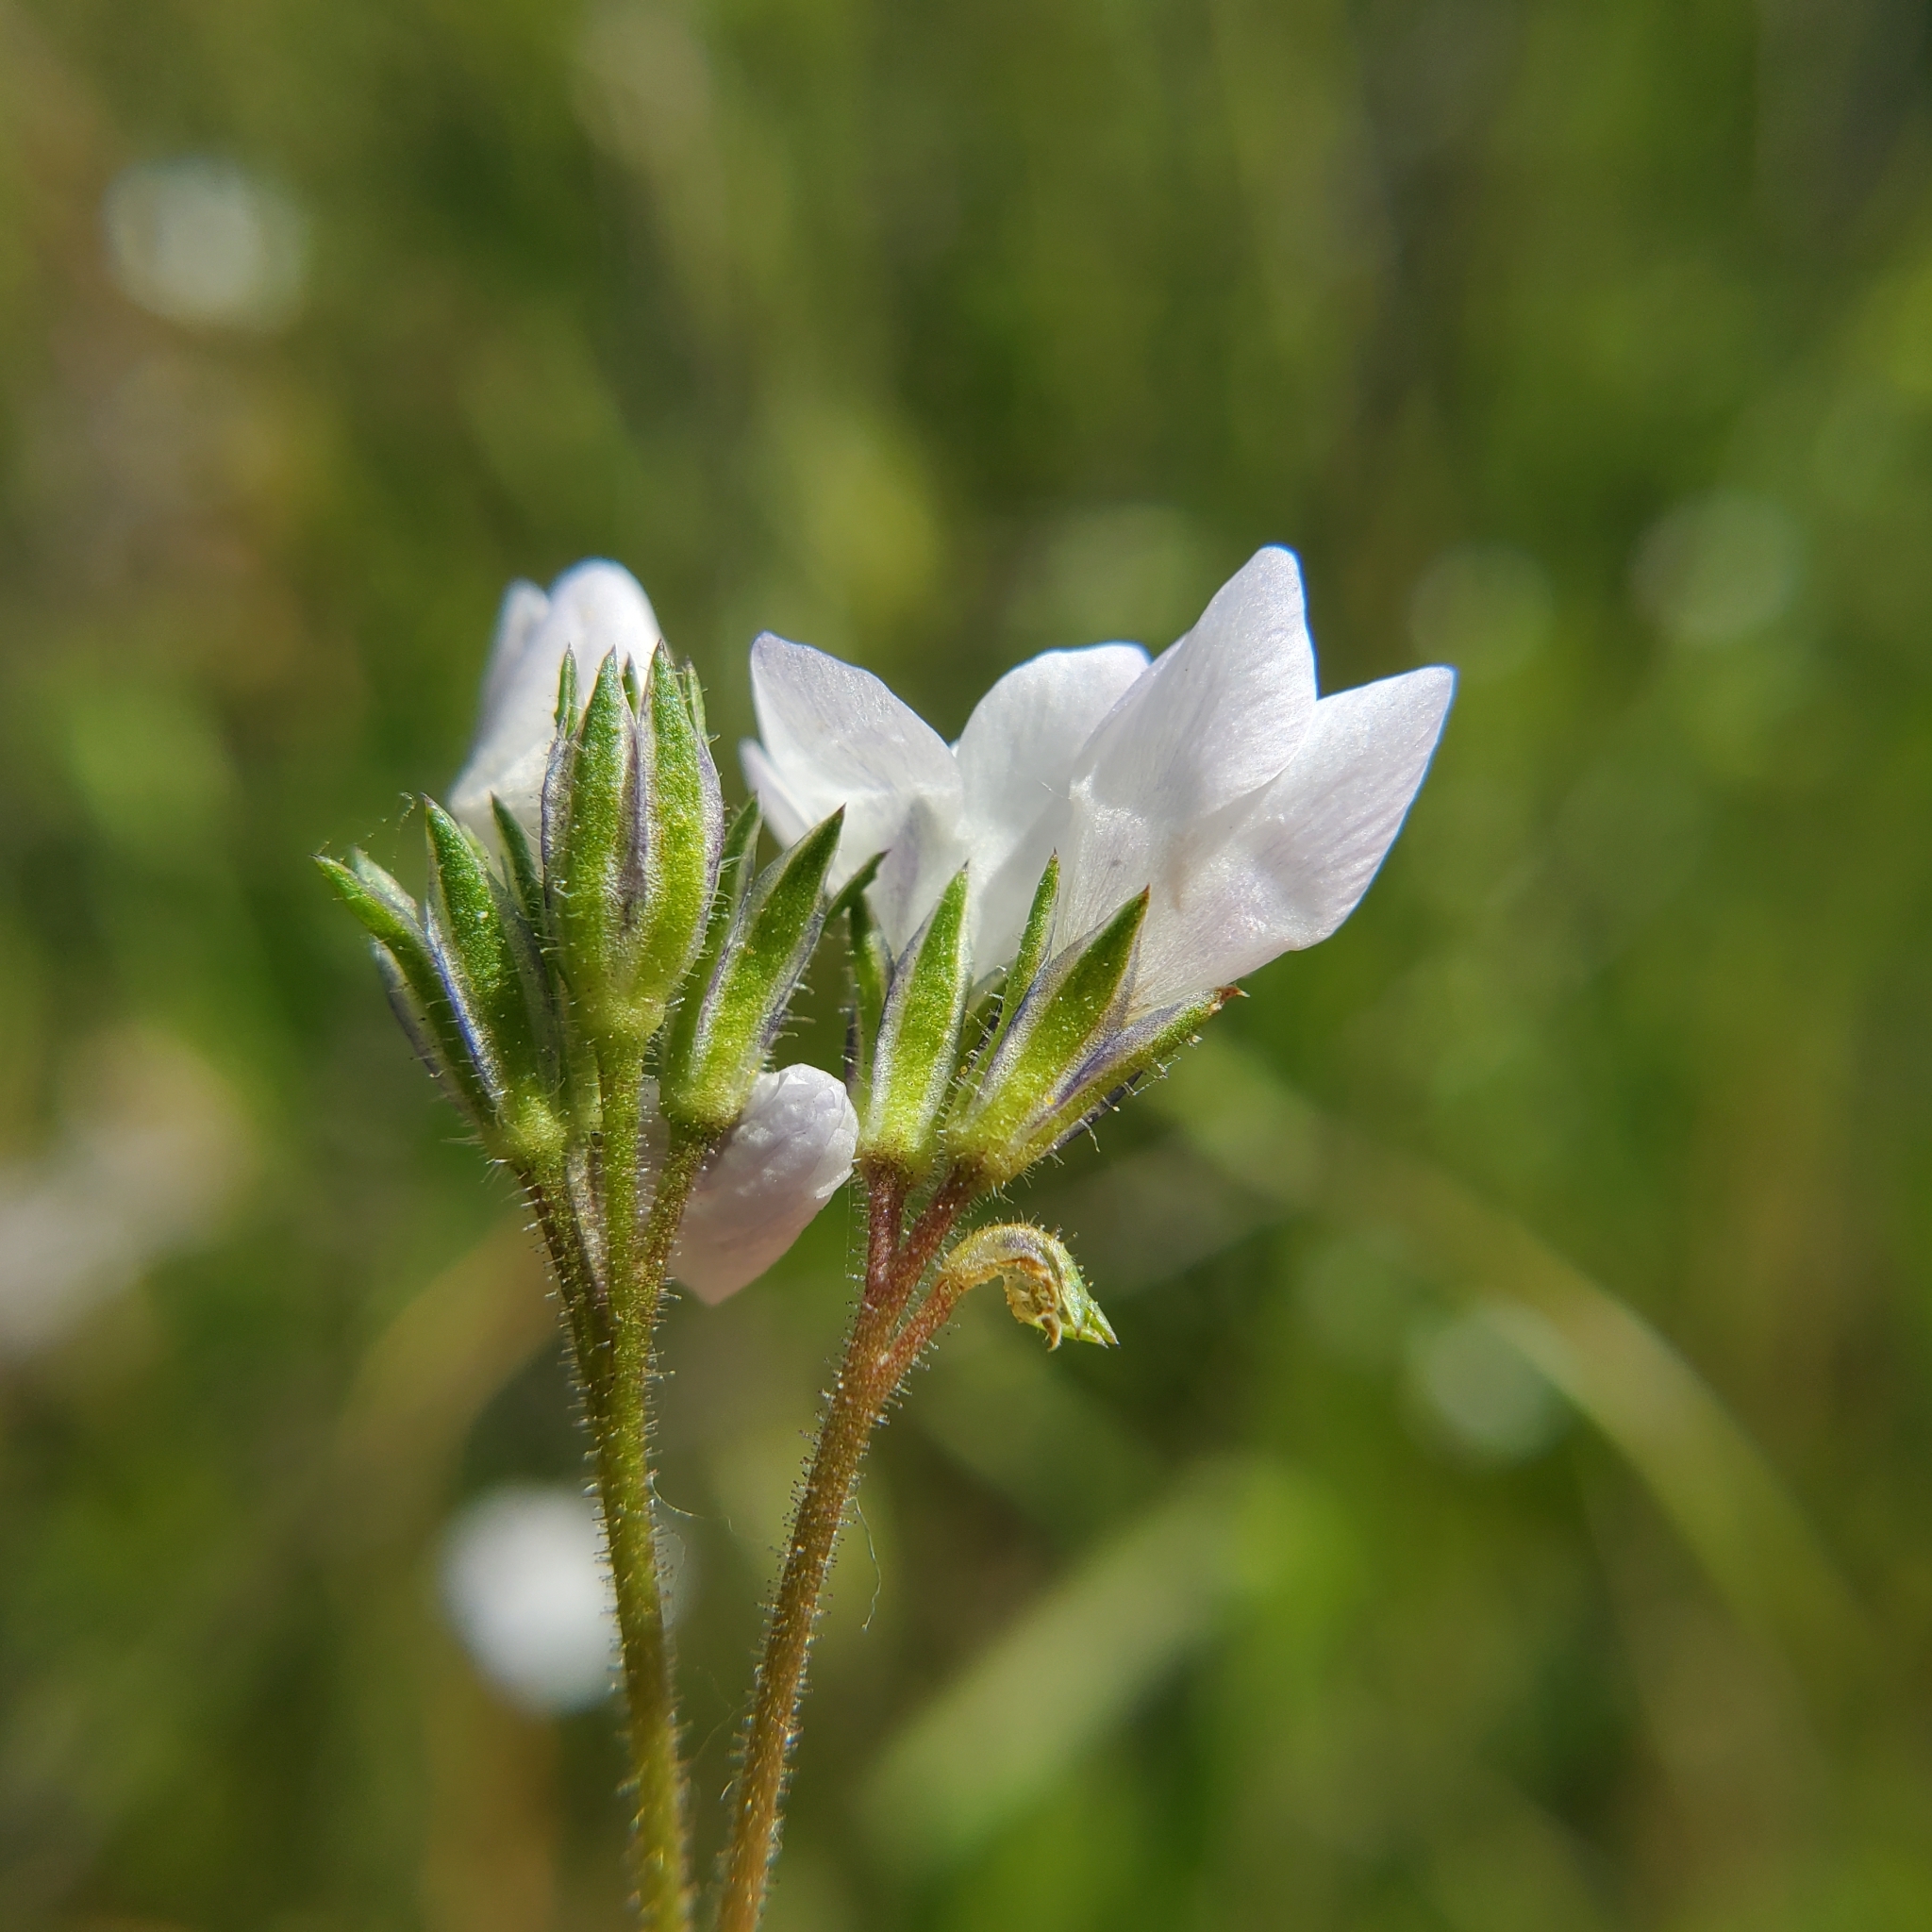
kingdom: Plantae
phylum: Tracheophyta
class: Magnoliopsida
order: Ericales
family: Polemoniaceae
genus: Gilia
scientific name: Gilia angelensis
